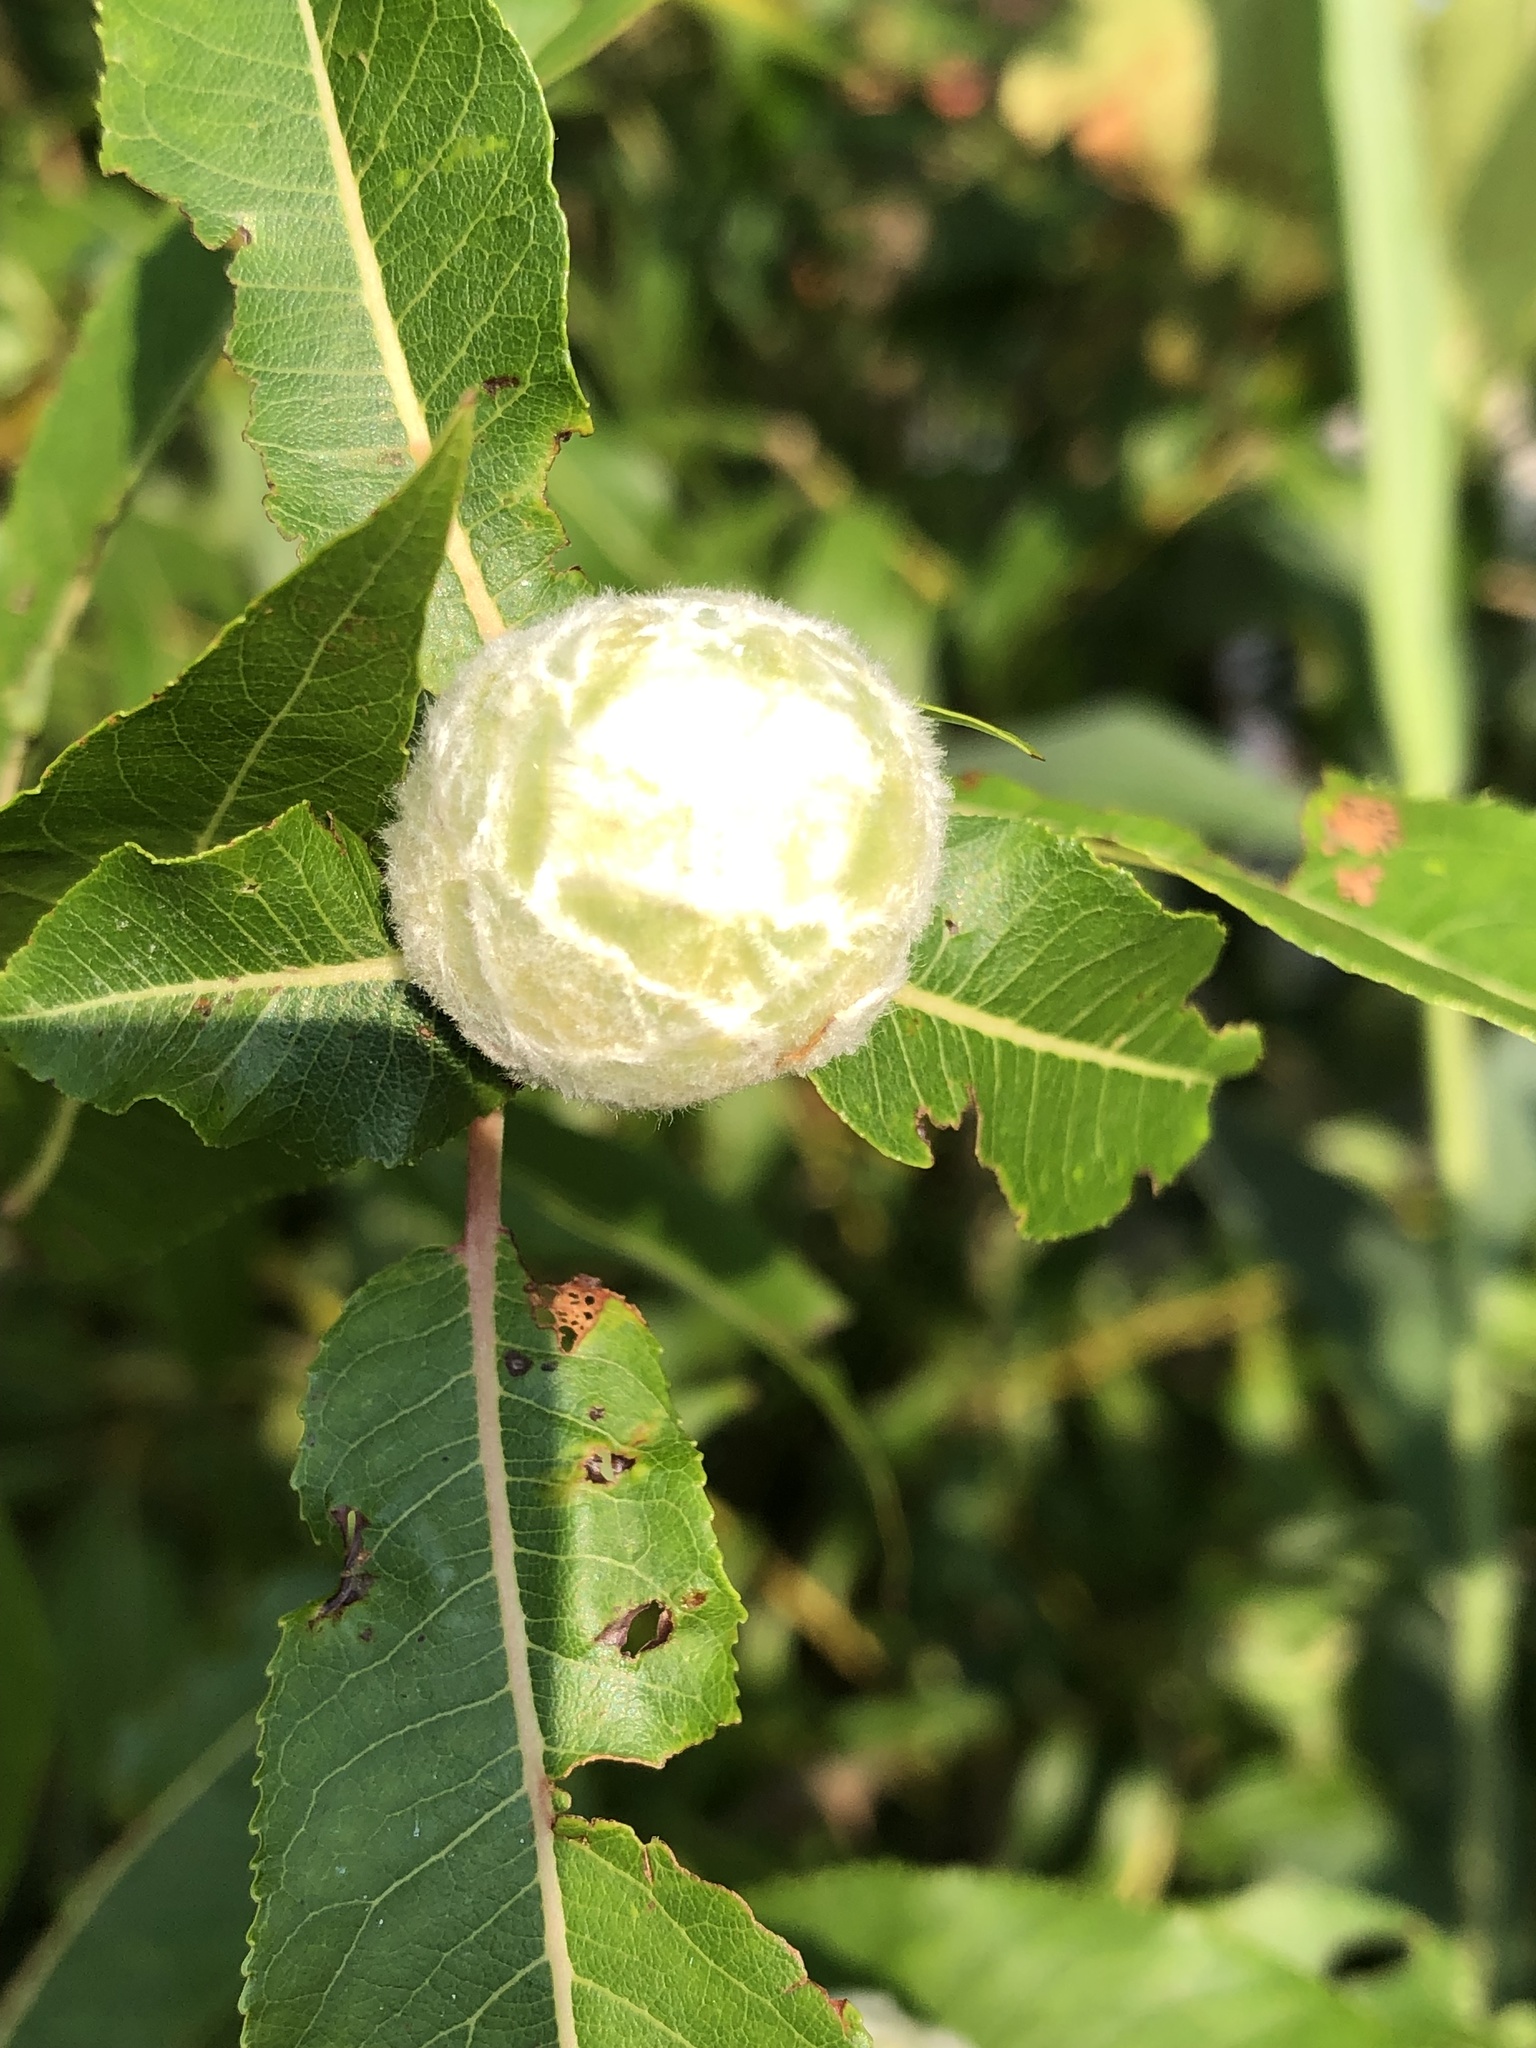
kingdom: Animalia
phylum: Arthropoda
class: Insecta
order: Diptera
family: Cecidomyiidae
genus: Rabdophaga
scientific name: Rabdophaga strobiloides
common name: Willow pinecone gall midge
